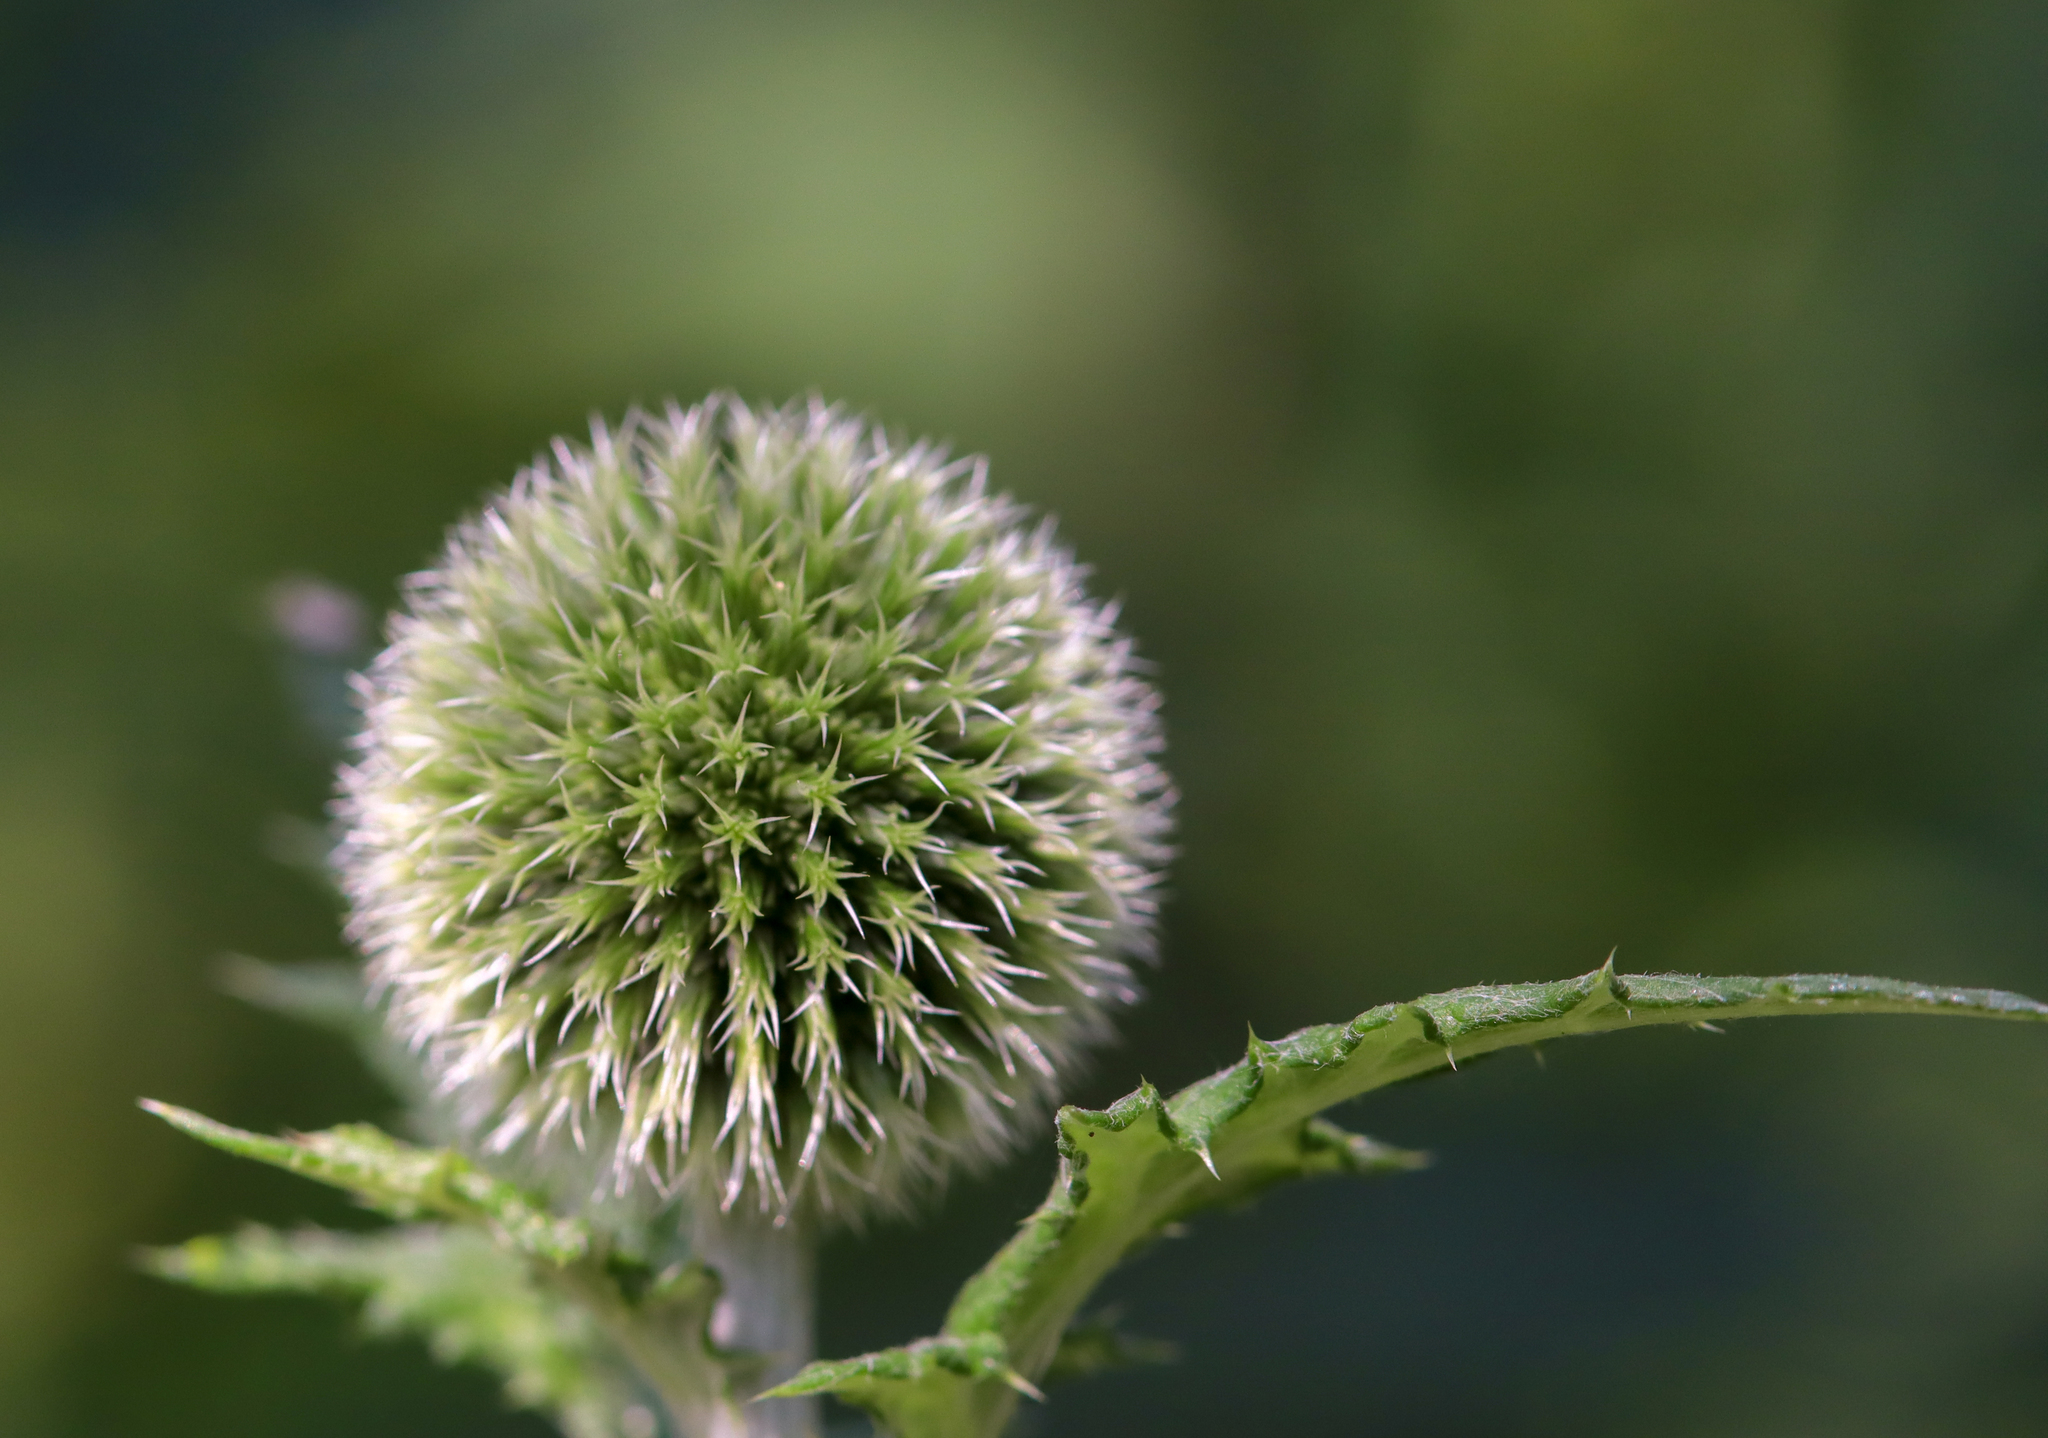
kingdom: Plantae
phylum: Tracheophyta
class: Magnoliopsida
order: Asterales
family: Asteraceae
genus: Echinops
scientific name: Echinops exaltatus
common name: Globe-thistle
